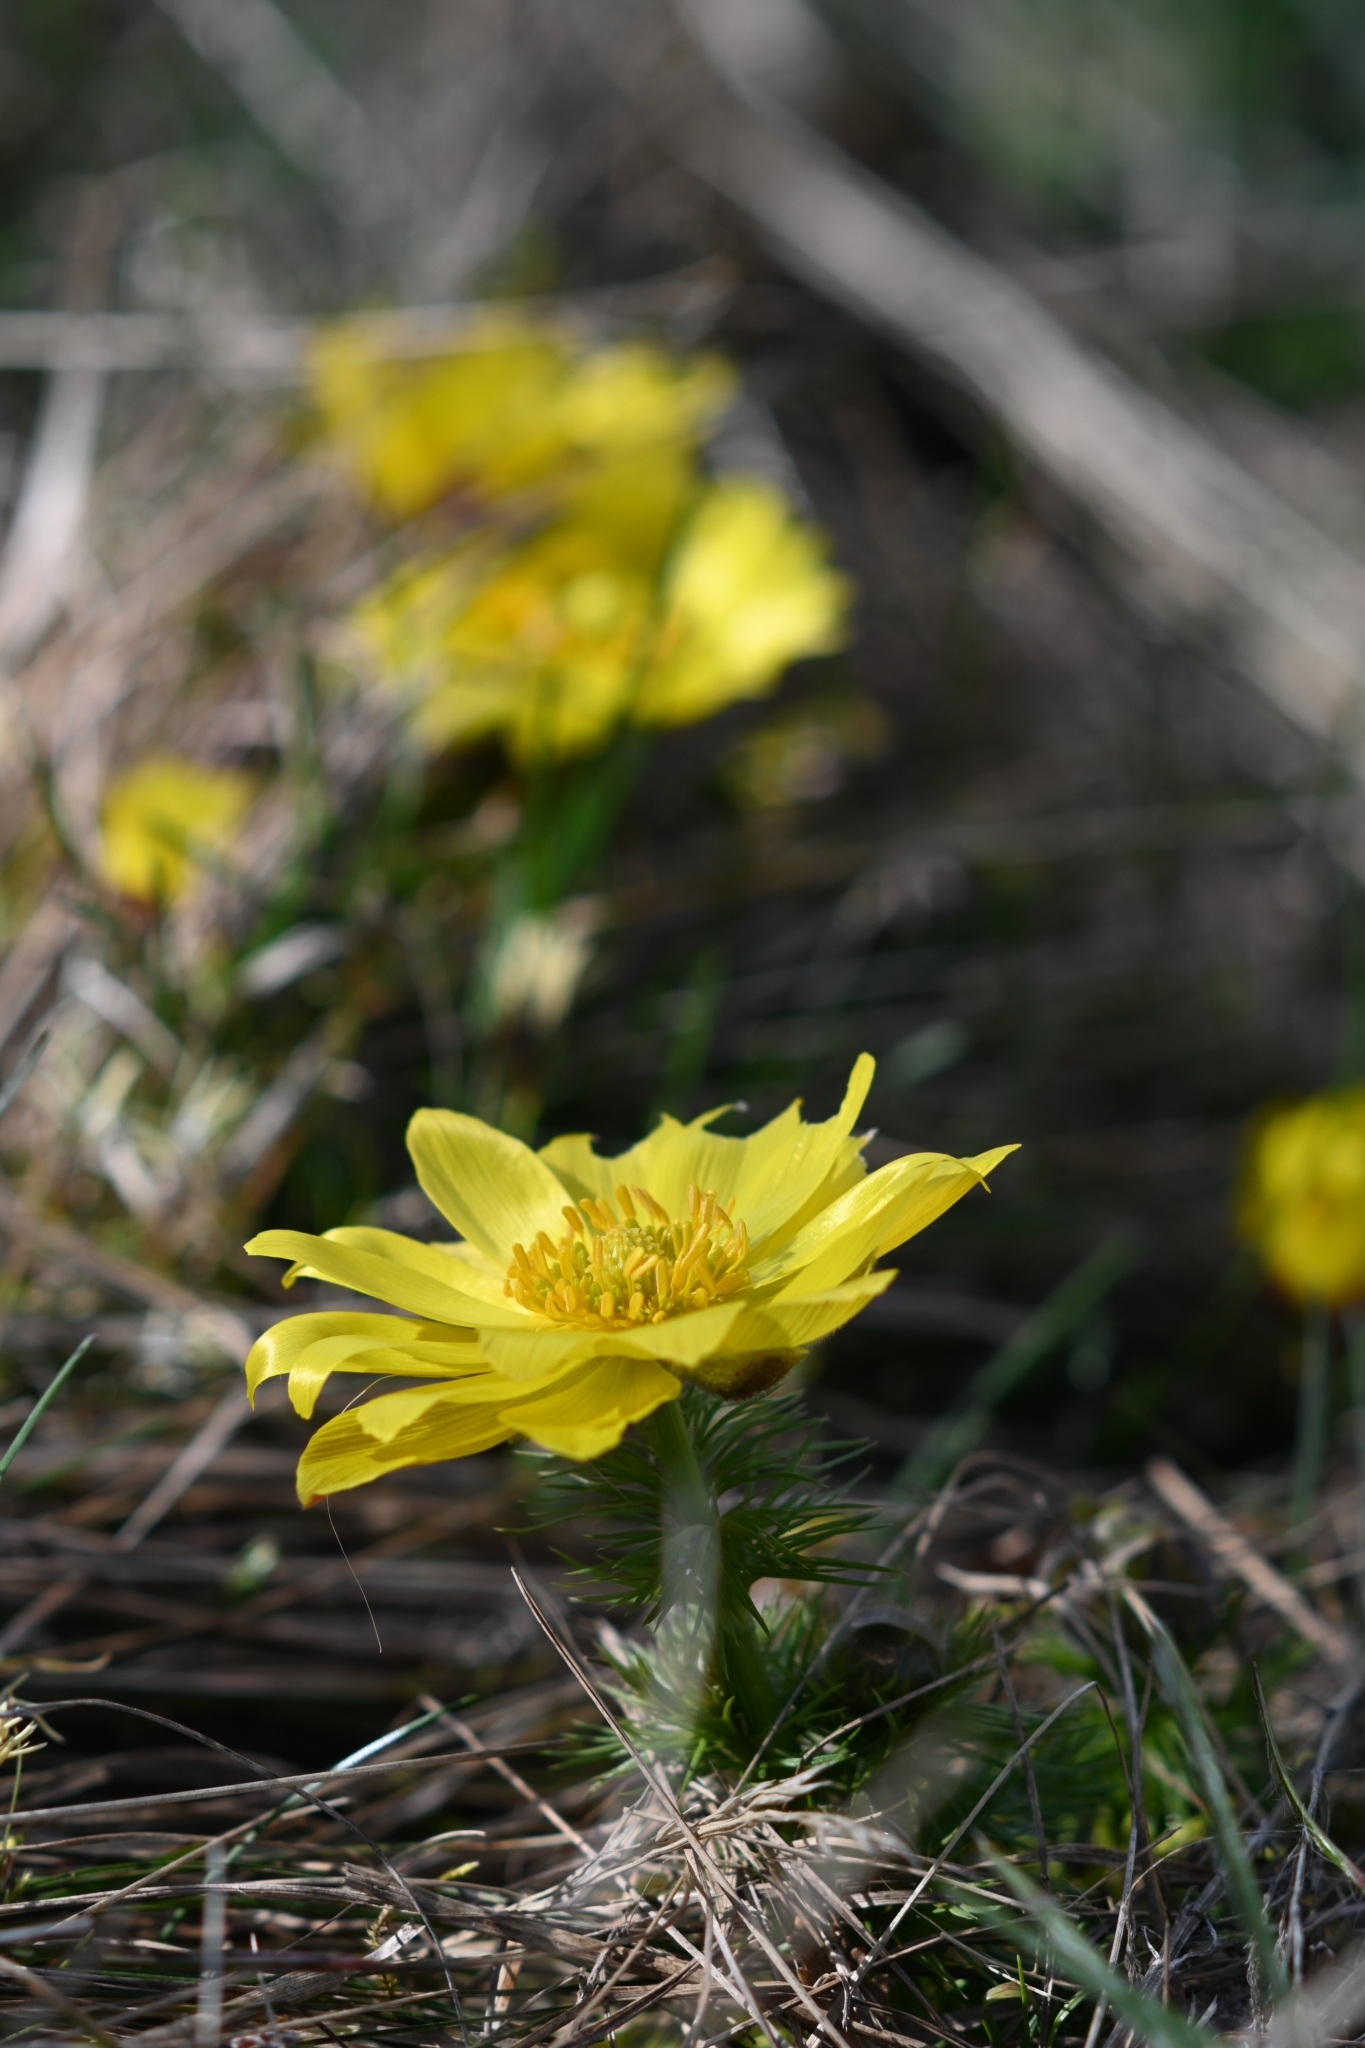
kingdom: Plantae
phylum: Tracheophyta
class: Magnoliopsida
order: Ranunculales
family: Ranunculaceae
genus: Adonis
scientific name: Adonis vernalis
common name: Yellow pheasants-eye
